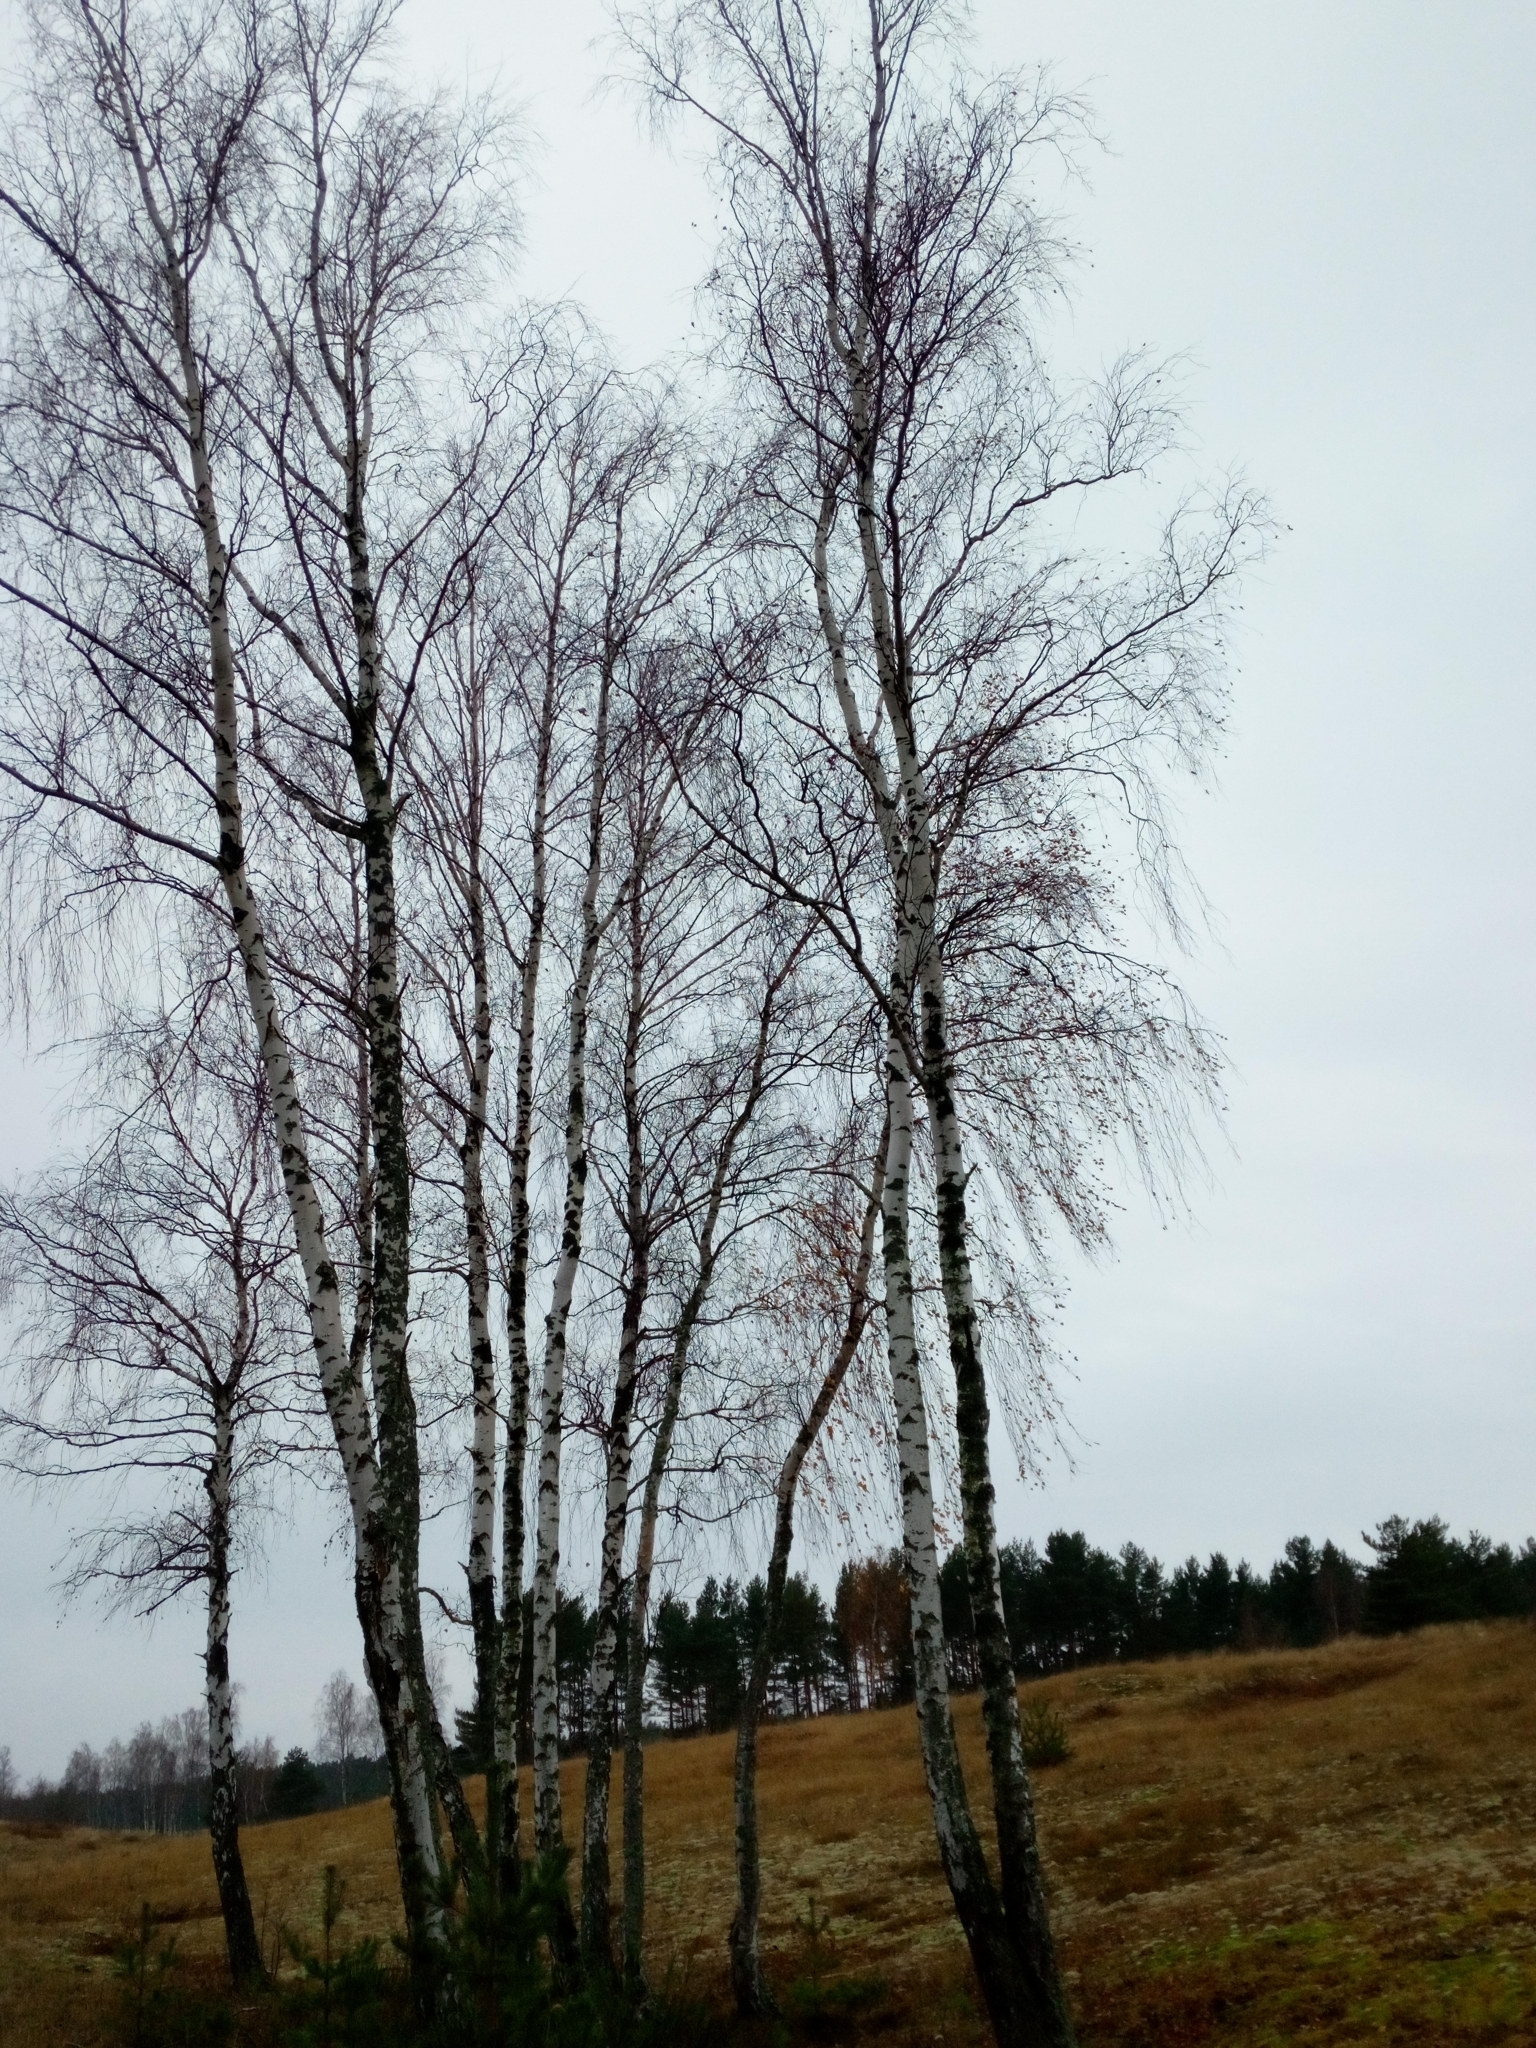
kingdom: Plantae
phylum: Tracheophyta
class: Magnoliopsida
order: Fagales
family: Betulaceae
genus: Betula
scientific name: Betula pendula
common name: Silver birch
